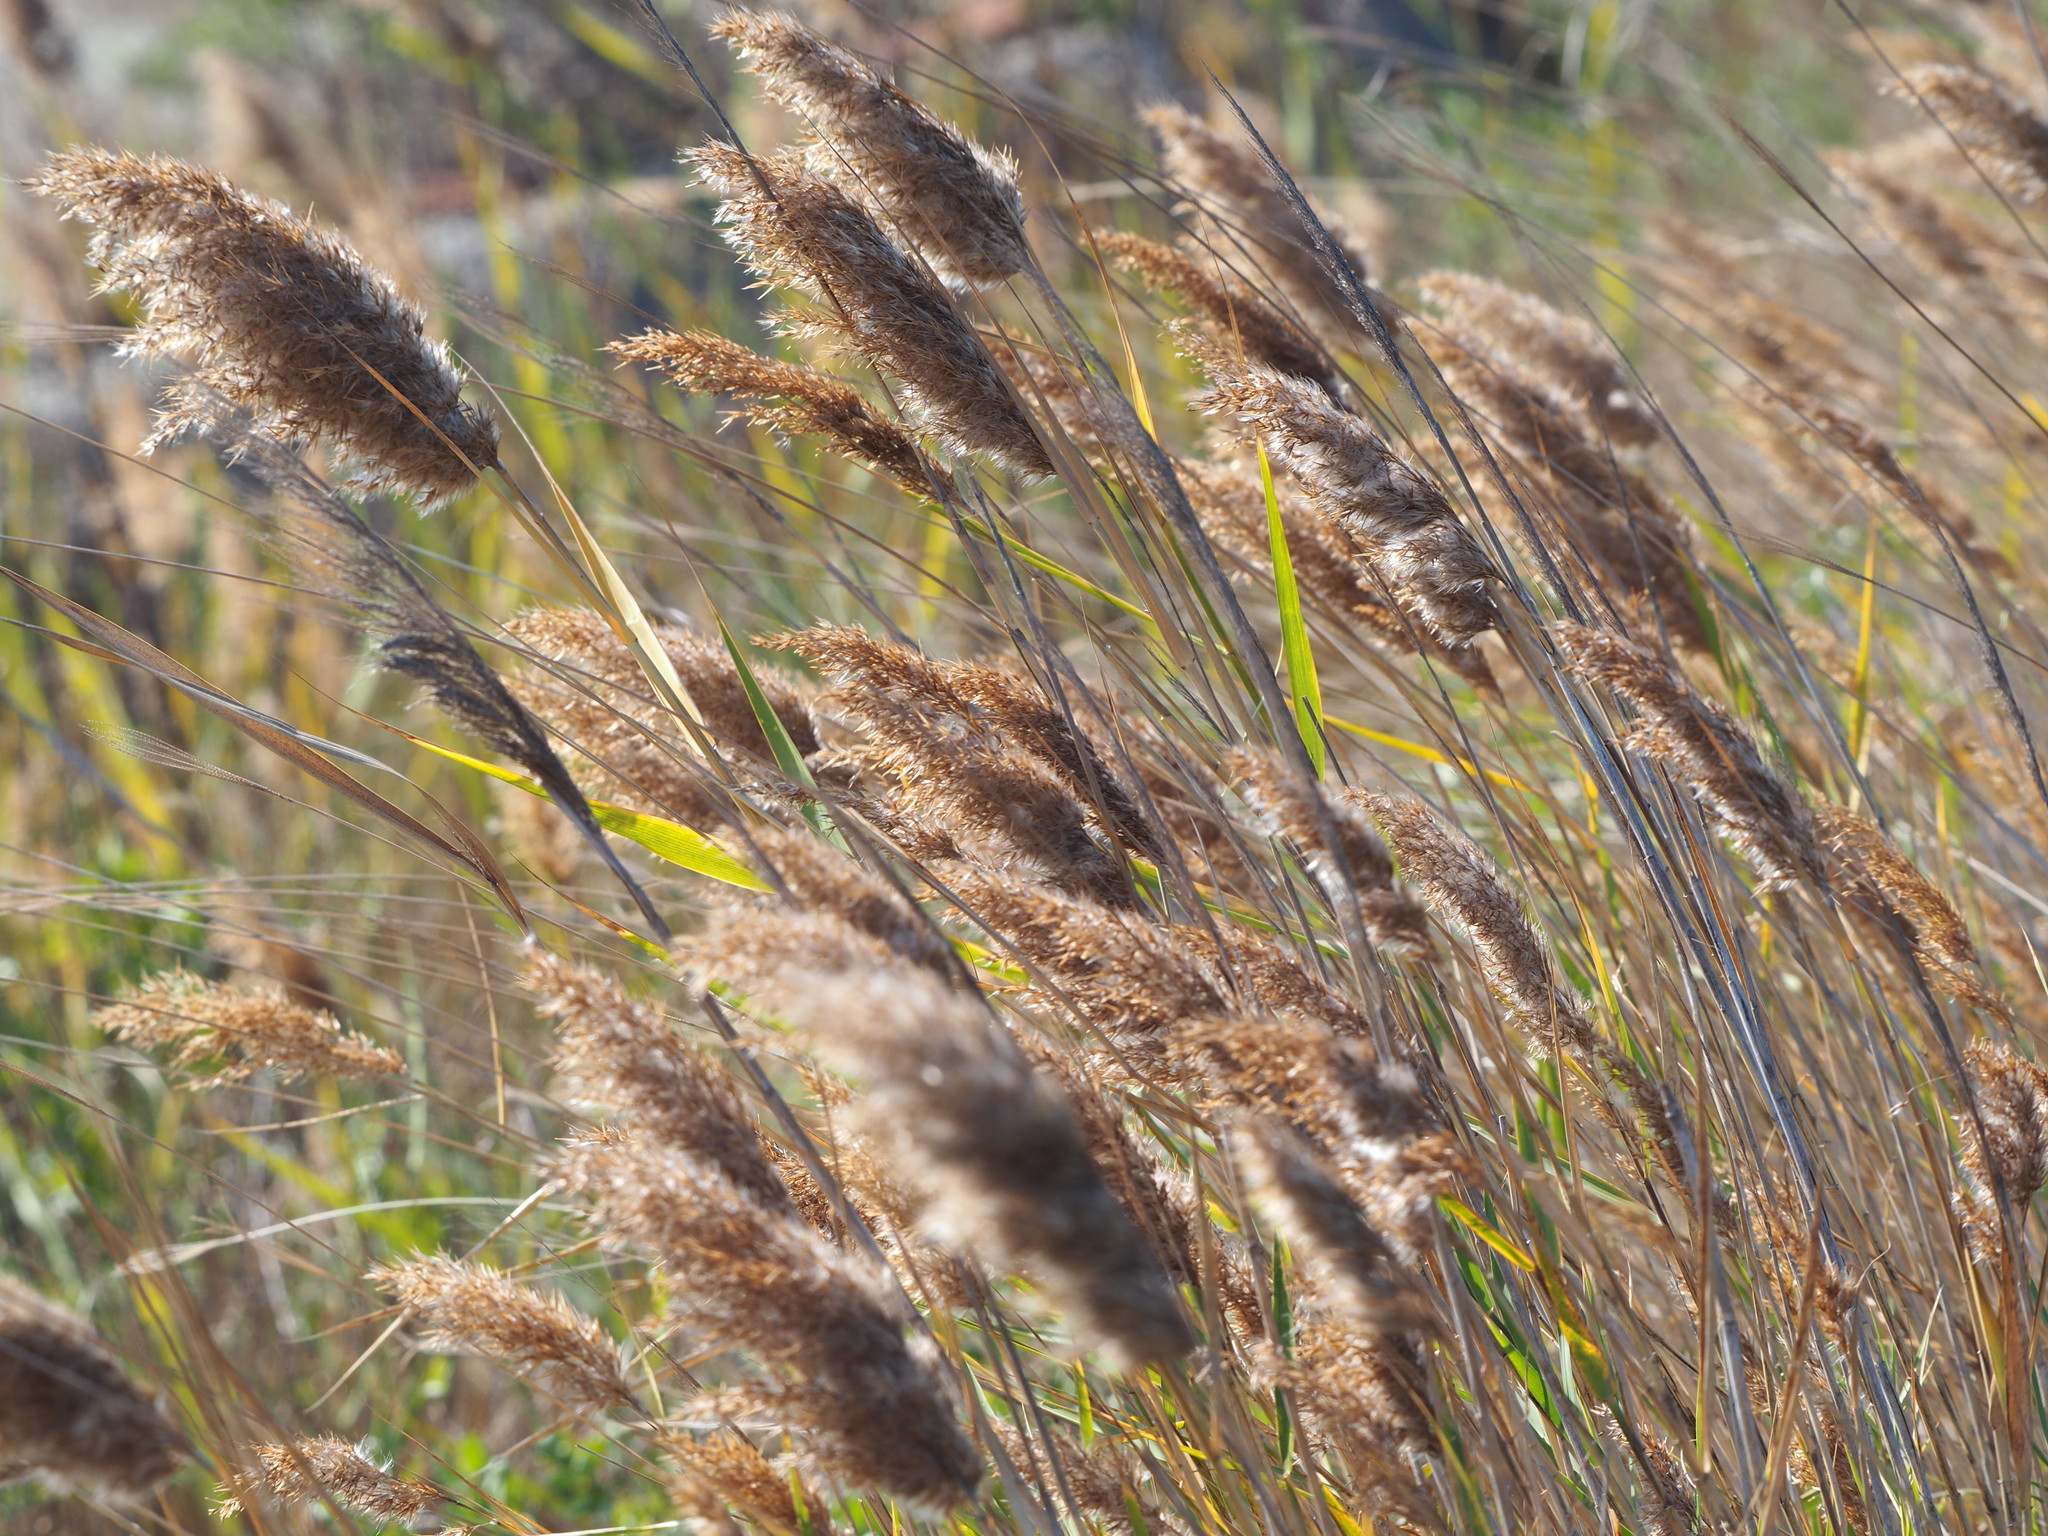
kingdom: Plantae
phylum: Tracheophyta
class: Liliopsida
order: Poales
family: Poaceae
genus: Phragmites
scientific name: Phragmites australis
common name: Common reed
